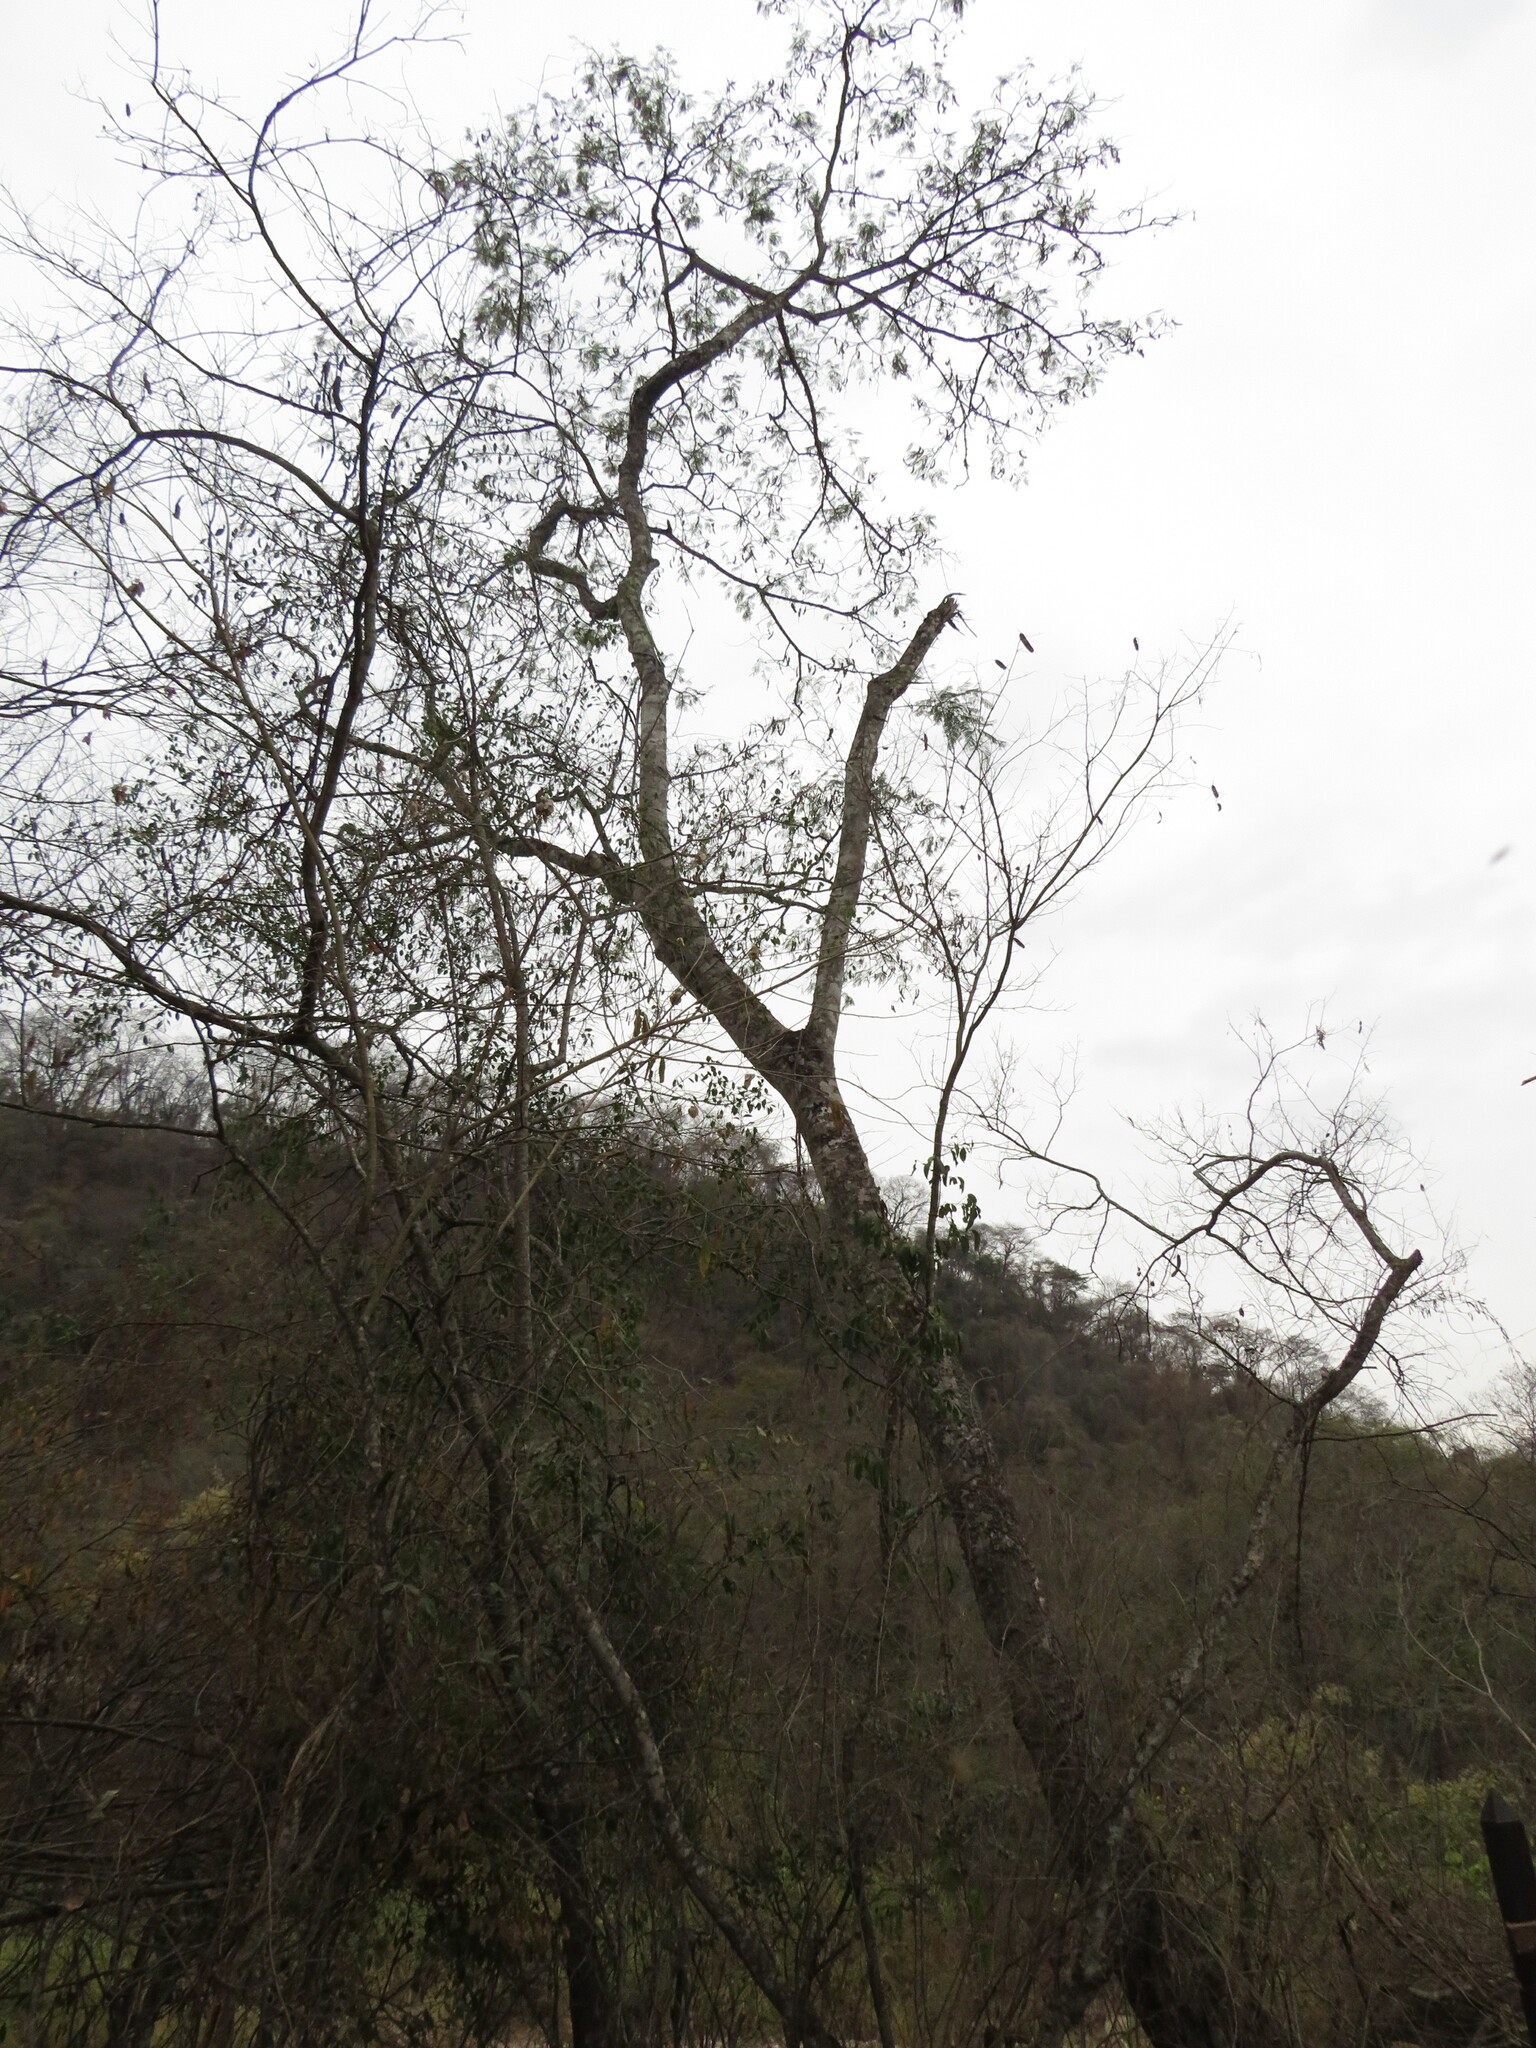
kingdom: Plantae
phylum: Tracheophyta
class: Magnoliopsida
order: Fabales
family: Fabaceae
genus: Anadenanthera
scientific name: Anadenanthera colubrina
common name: Curupay
